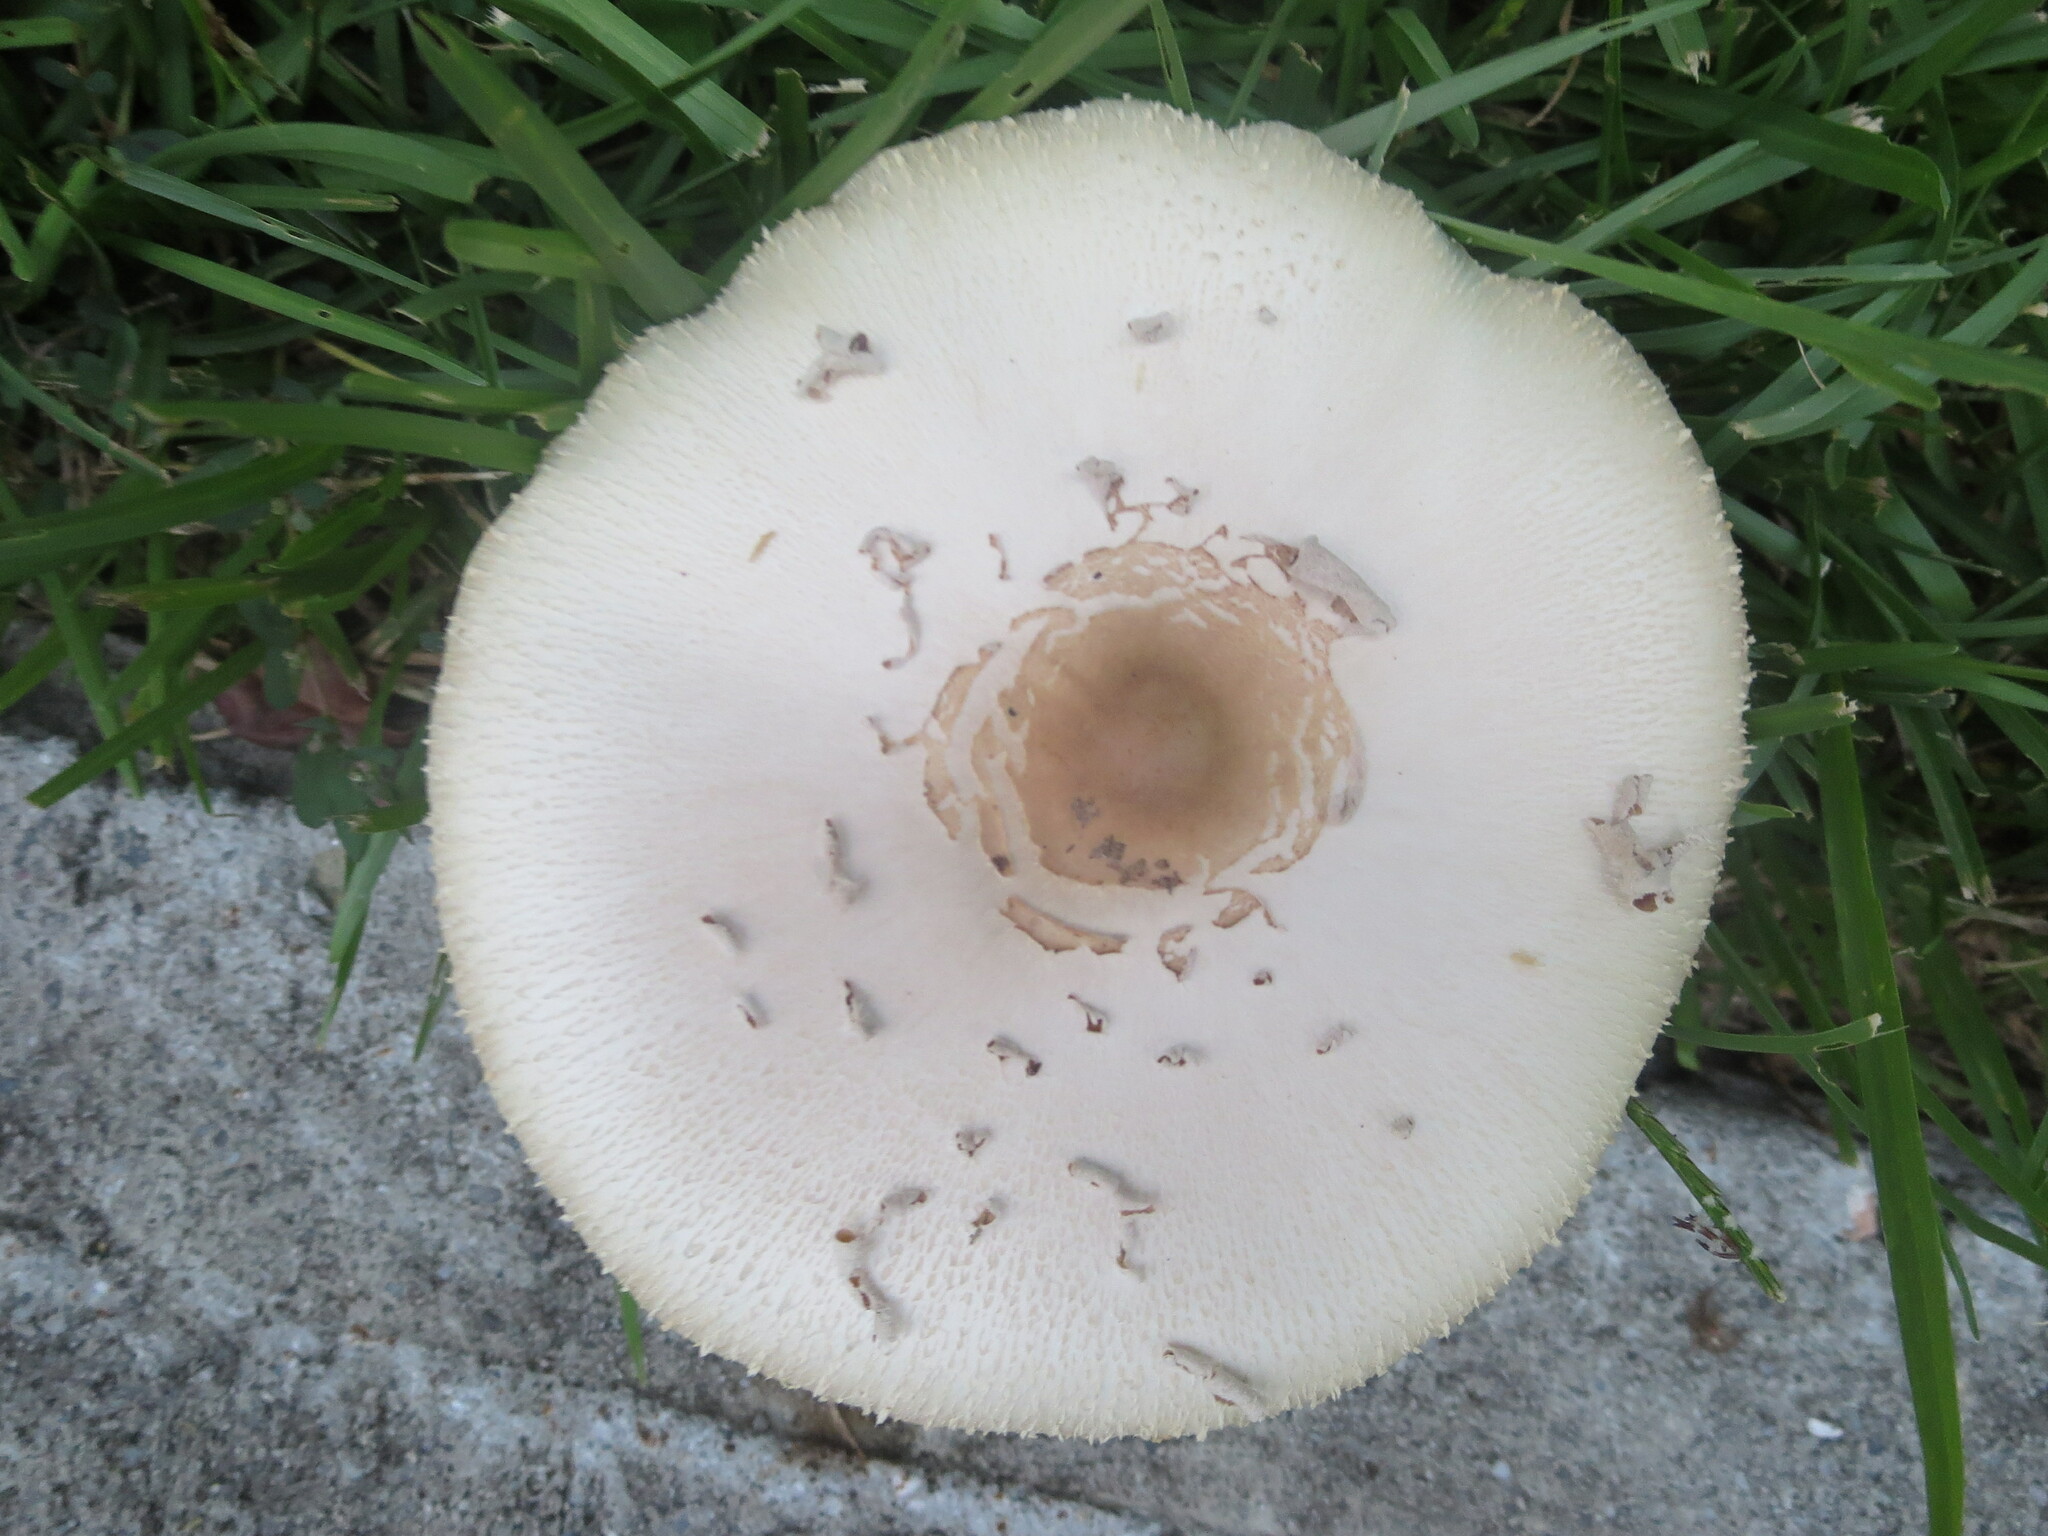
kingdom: Fungi
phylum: Basidiomycota
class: Agaricomycetes
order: Agaricales
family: Agaricaceae
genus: Chlorophyllum
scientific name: Chlorophyllum molybdites
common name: False parasol
